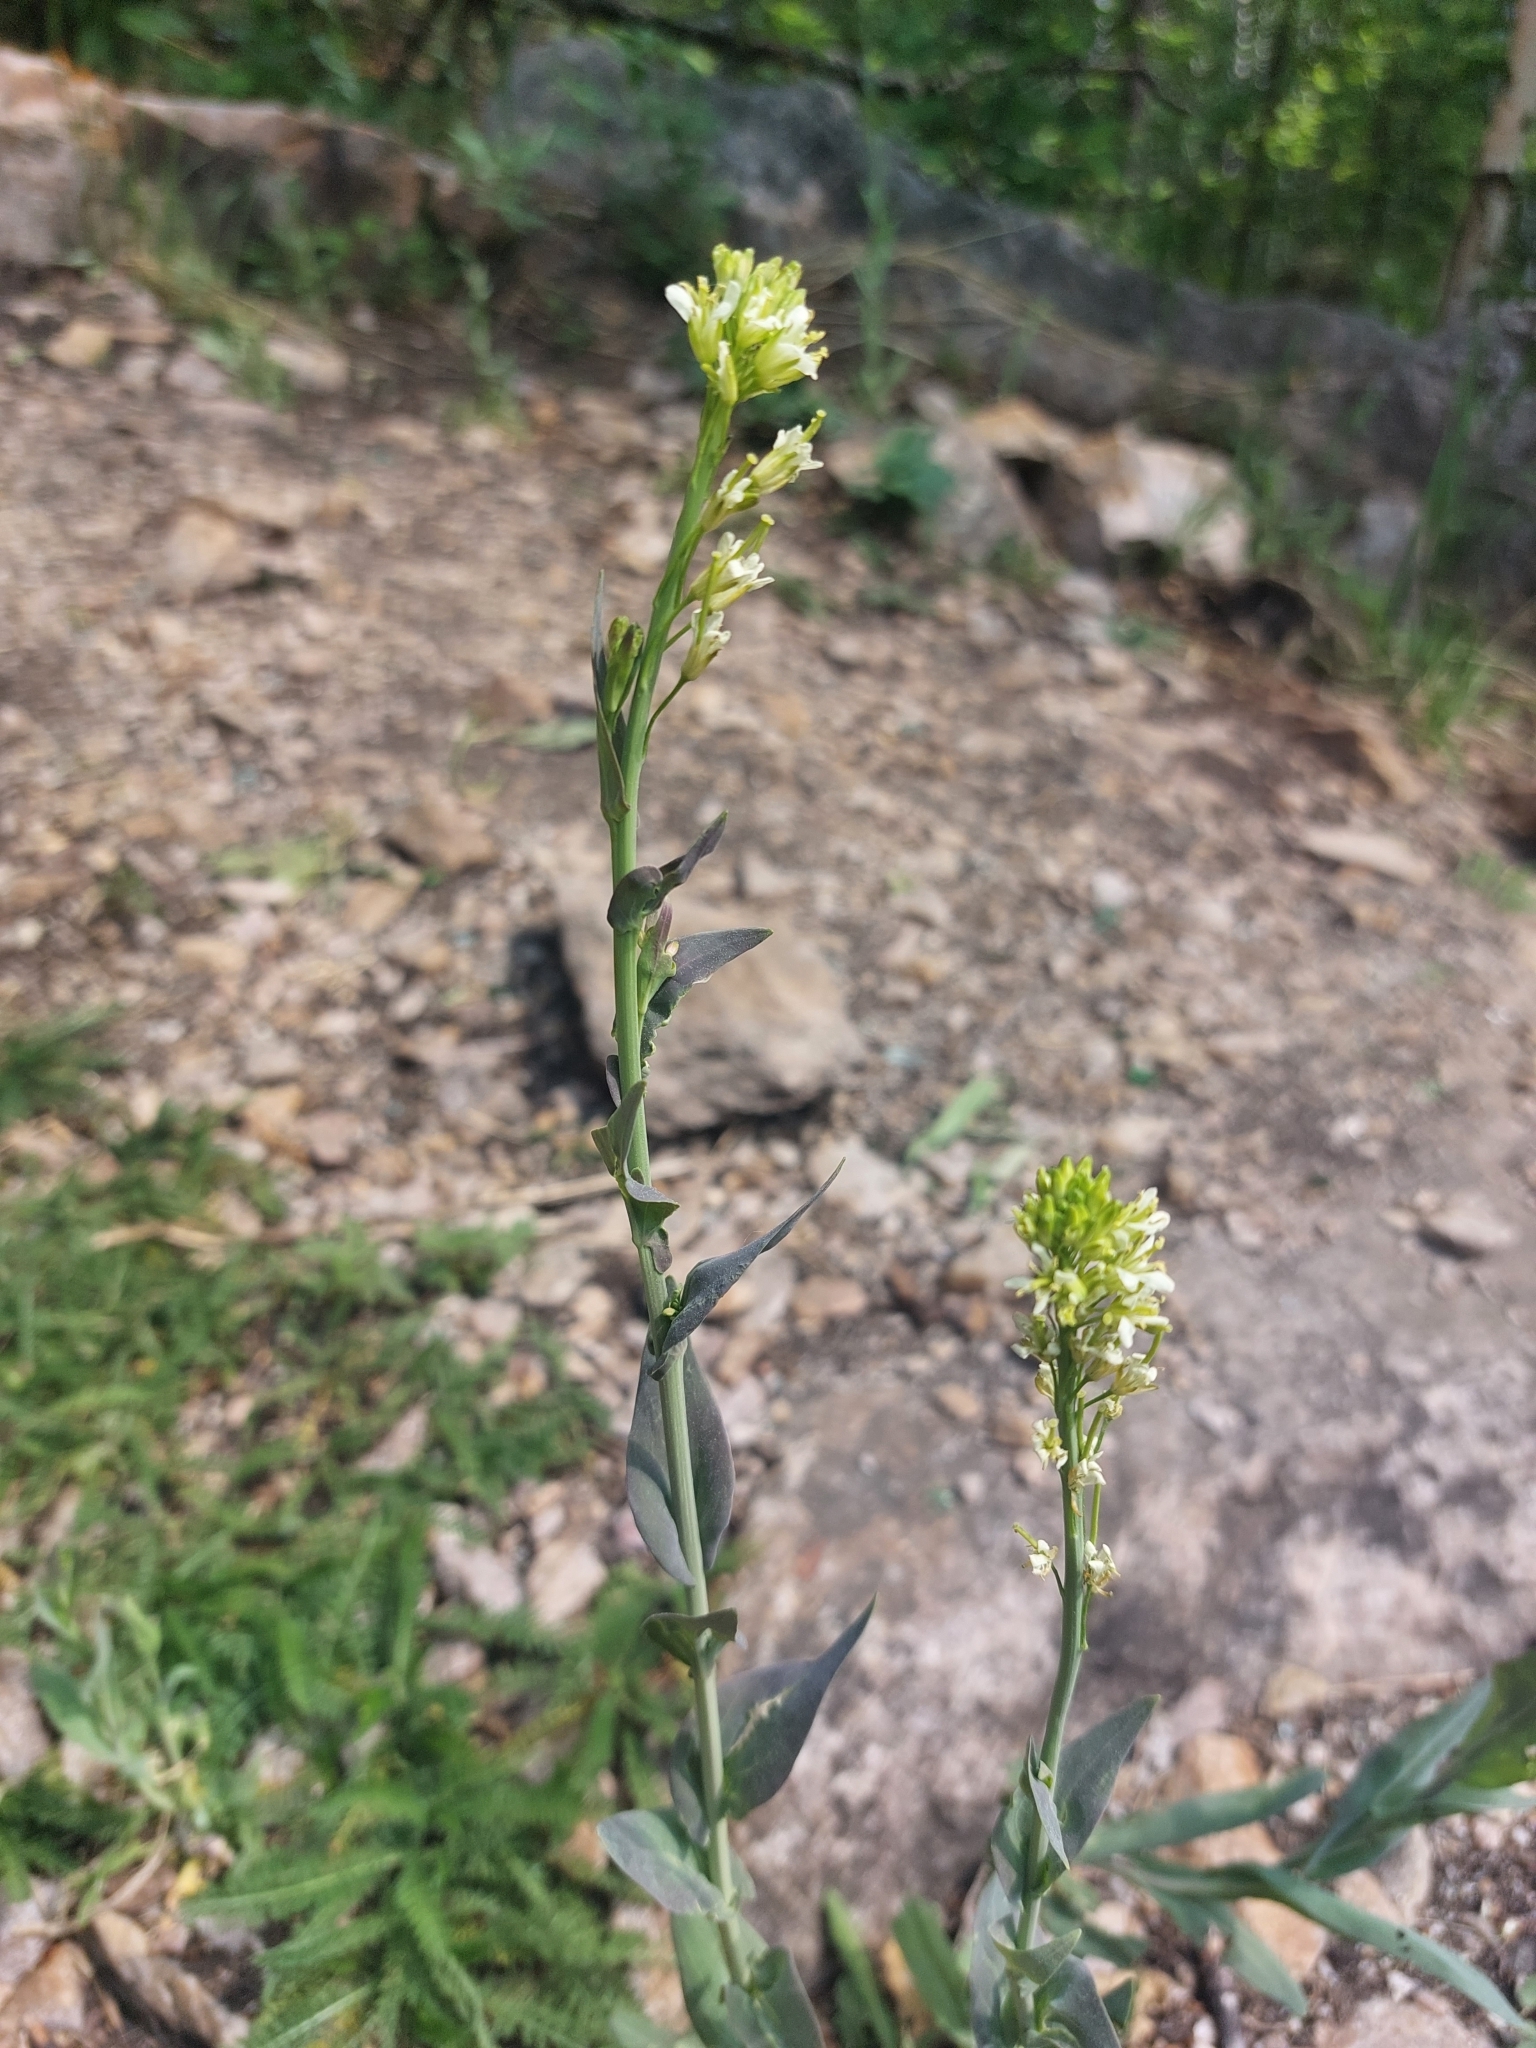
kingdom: Plantae
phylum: Tracheophyta
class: Magnoliopsida
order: Brassicales
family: Brassicaceae
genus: Turritis
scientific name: Turritis glabra
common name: Tower rockcress
